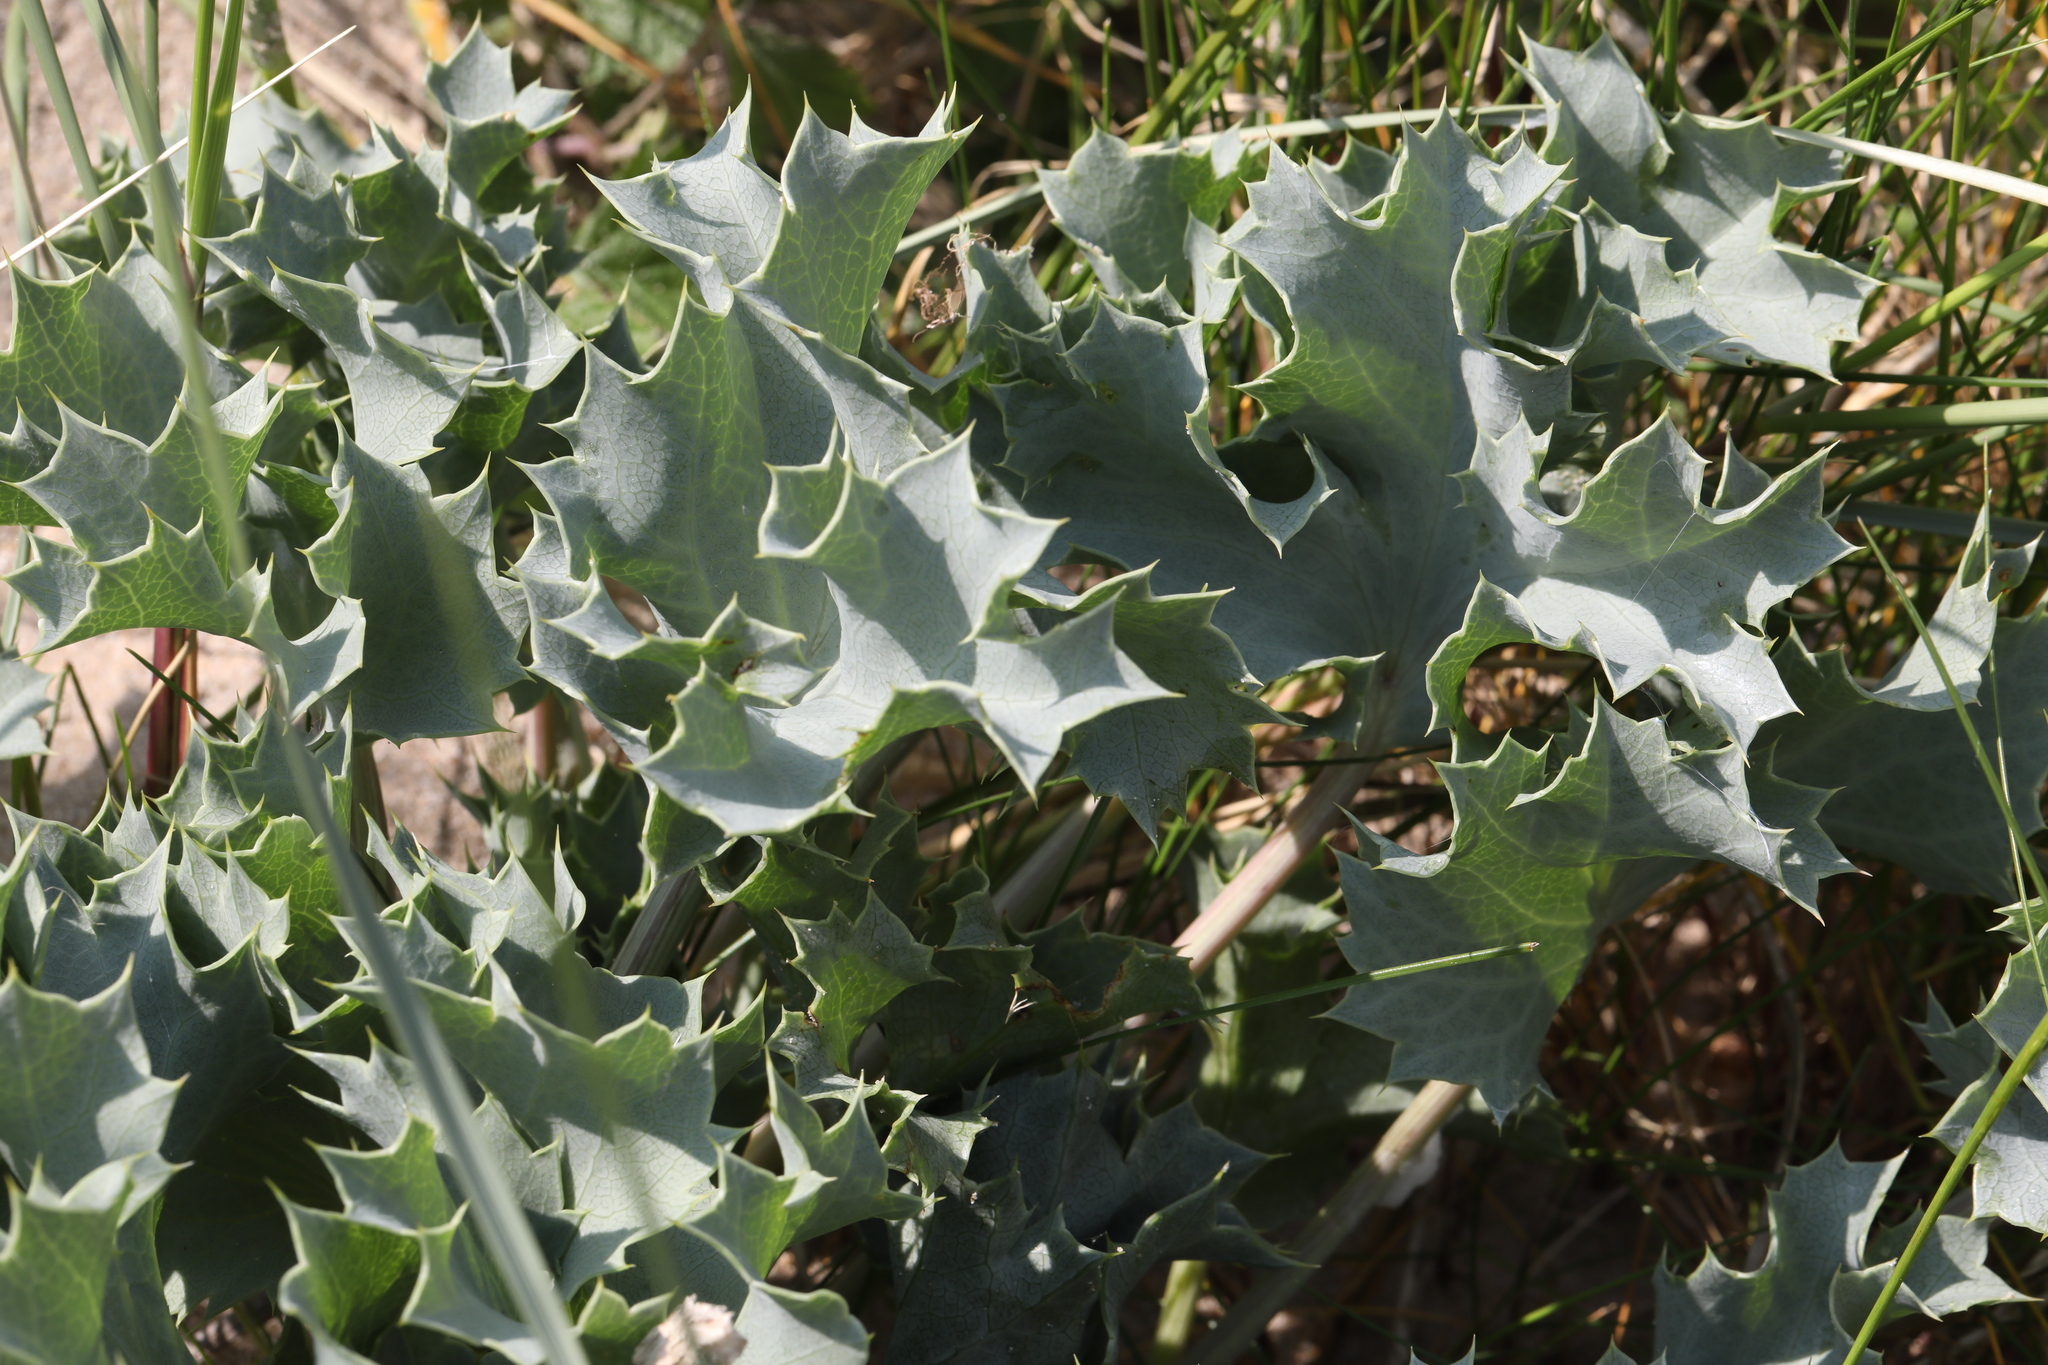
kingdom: Plantae
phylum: Tracheophyta
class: Magnoliopsida
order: Apiales
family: Apiaceae
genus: Eryngium
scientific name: Eryngium maritimum
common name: Sea-holly
